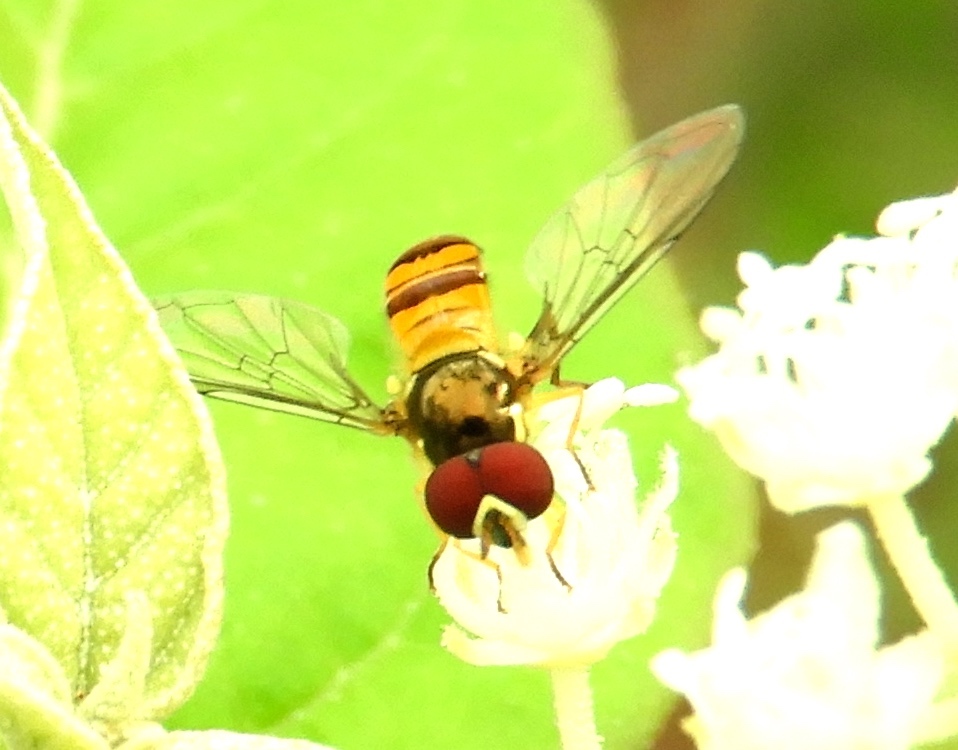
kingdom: Animalia
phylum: Arthropoda
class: Insecta
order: Diptera
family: Syrphidae
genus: Allograpta
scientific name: Allograpta
